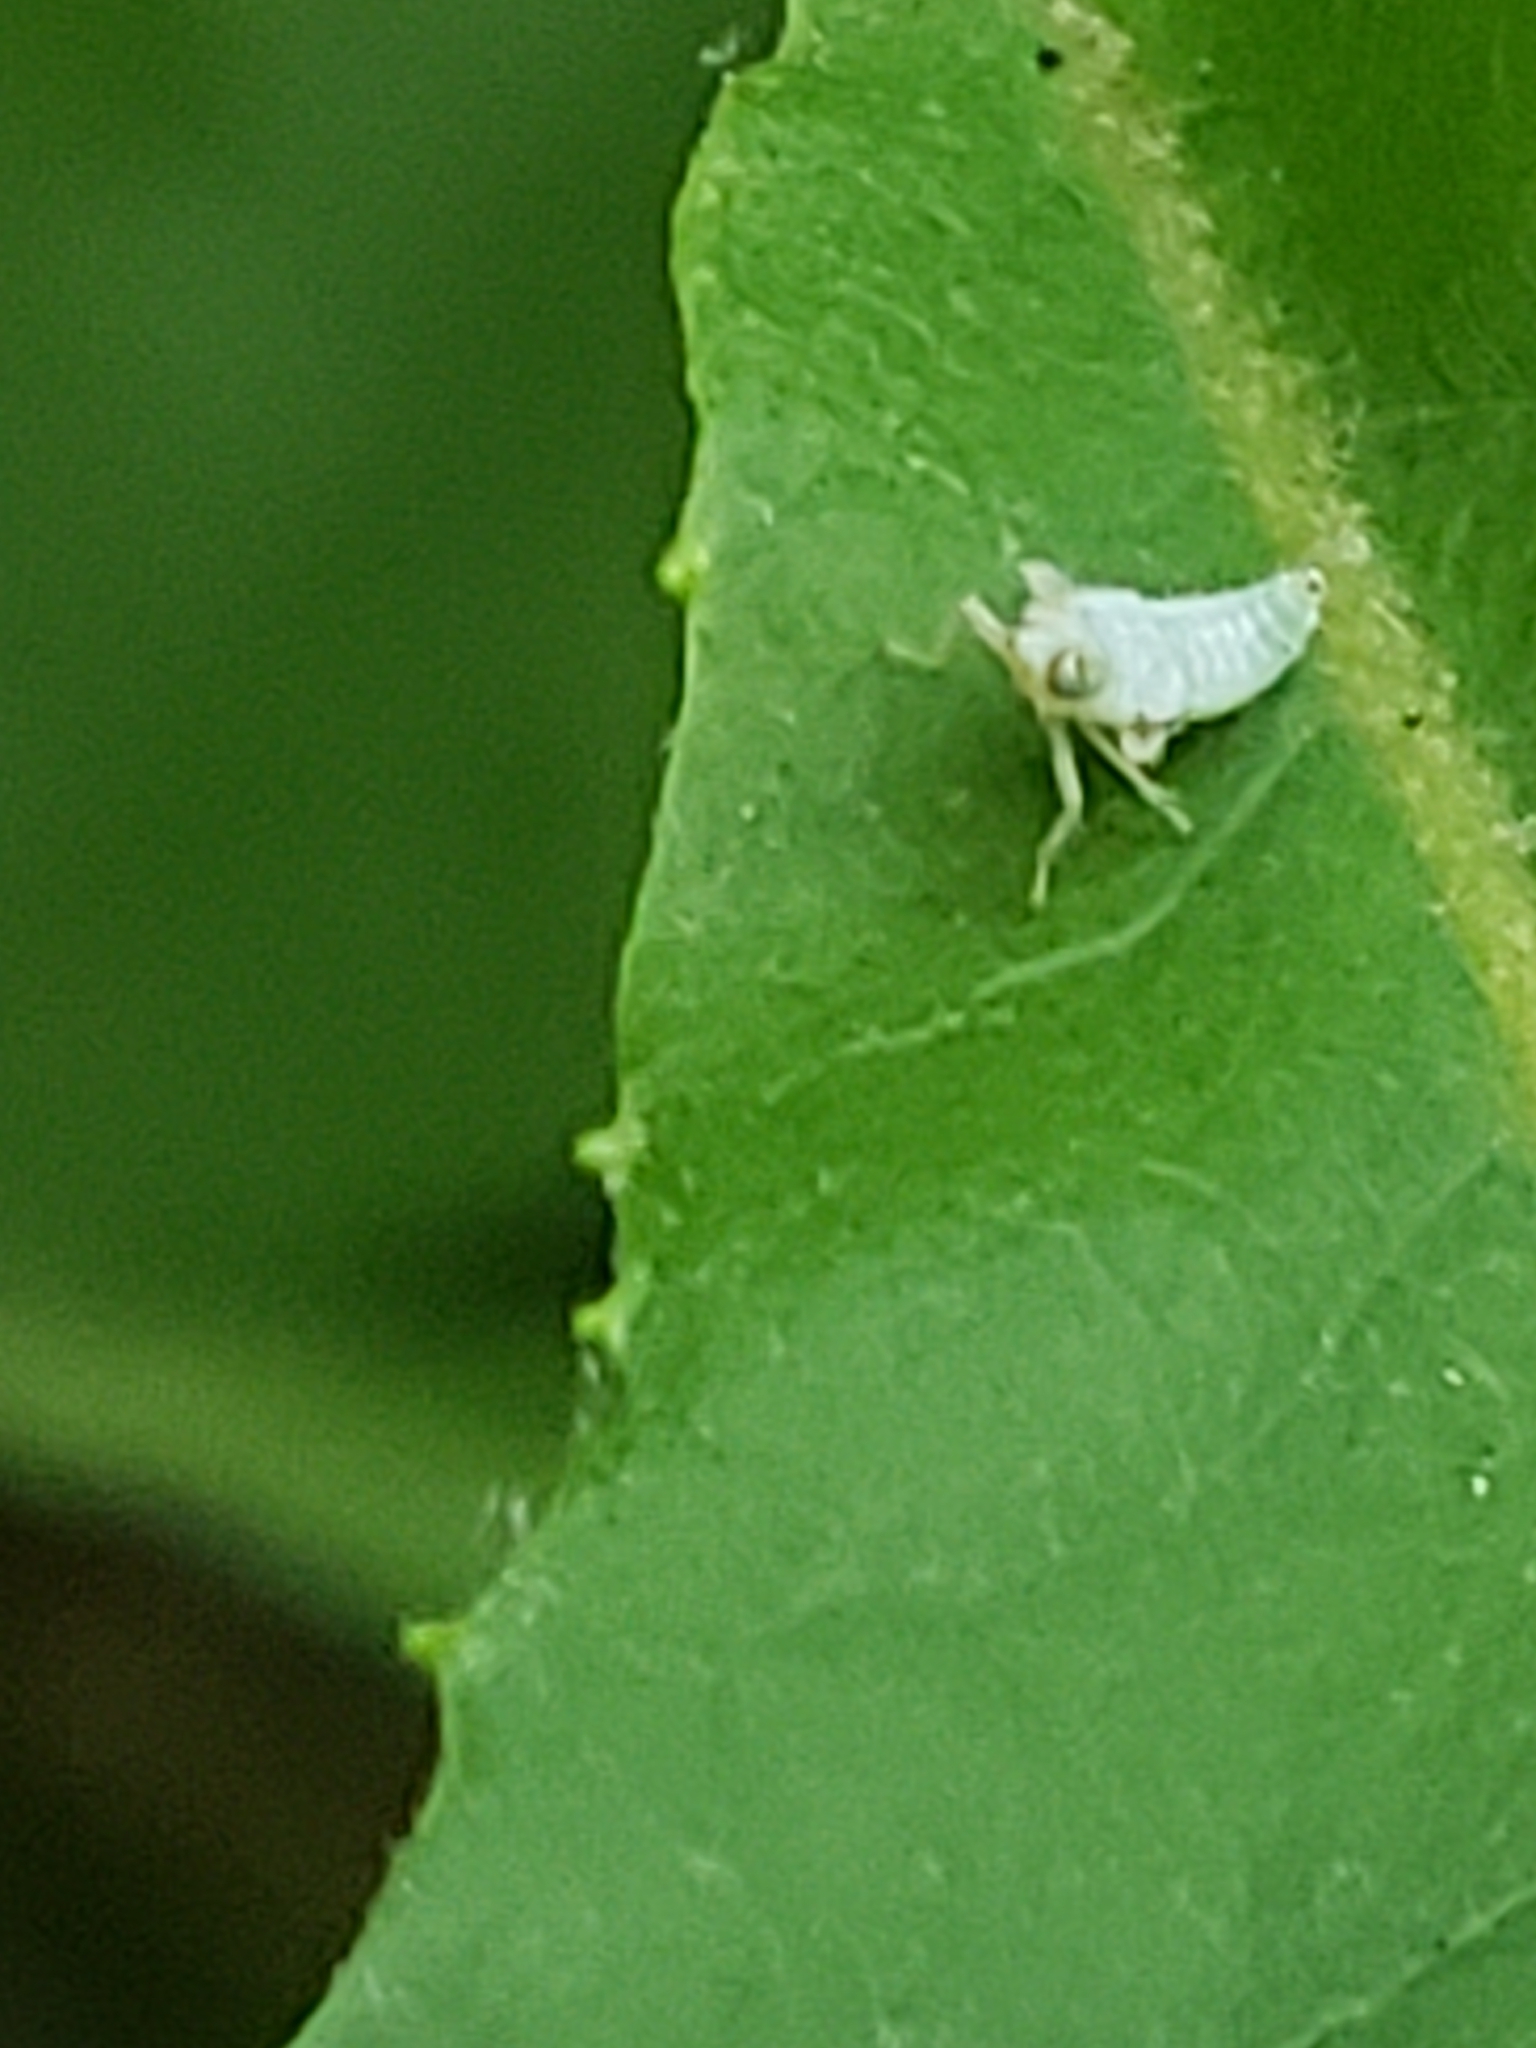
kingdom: Animalia
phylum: Arthropoda
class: Insecta
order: Hemiptera
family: Cicadellidae
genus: Jikradia
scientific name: Jikradia olitoria
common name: Coppery leafhopper
